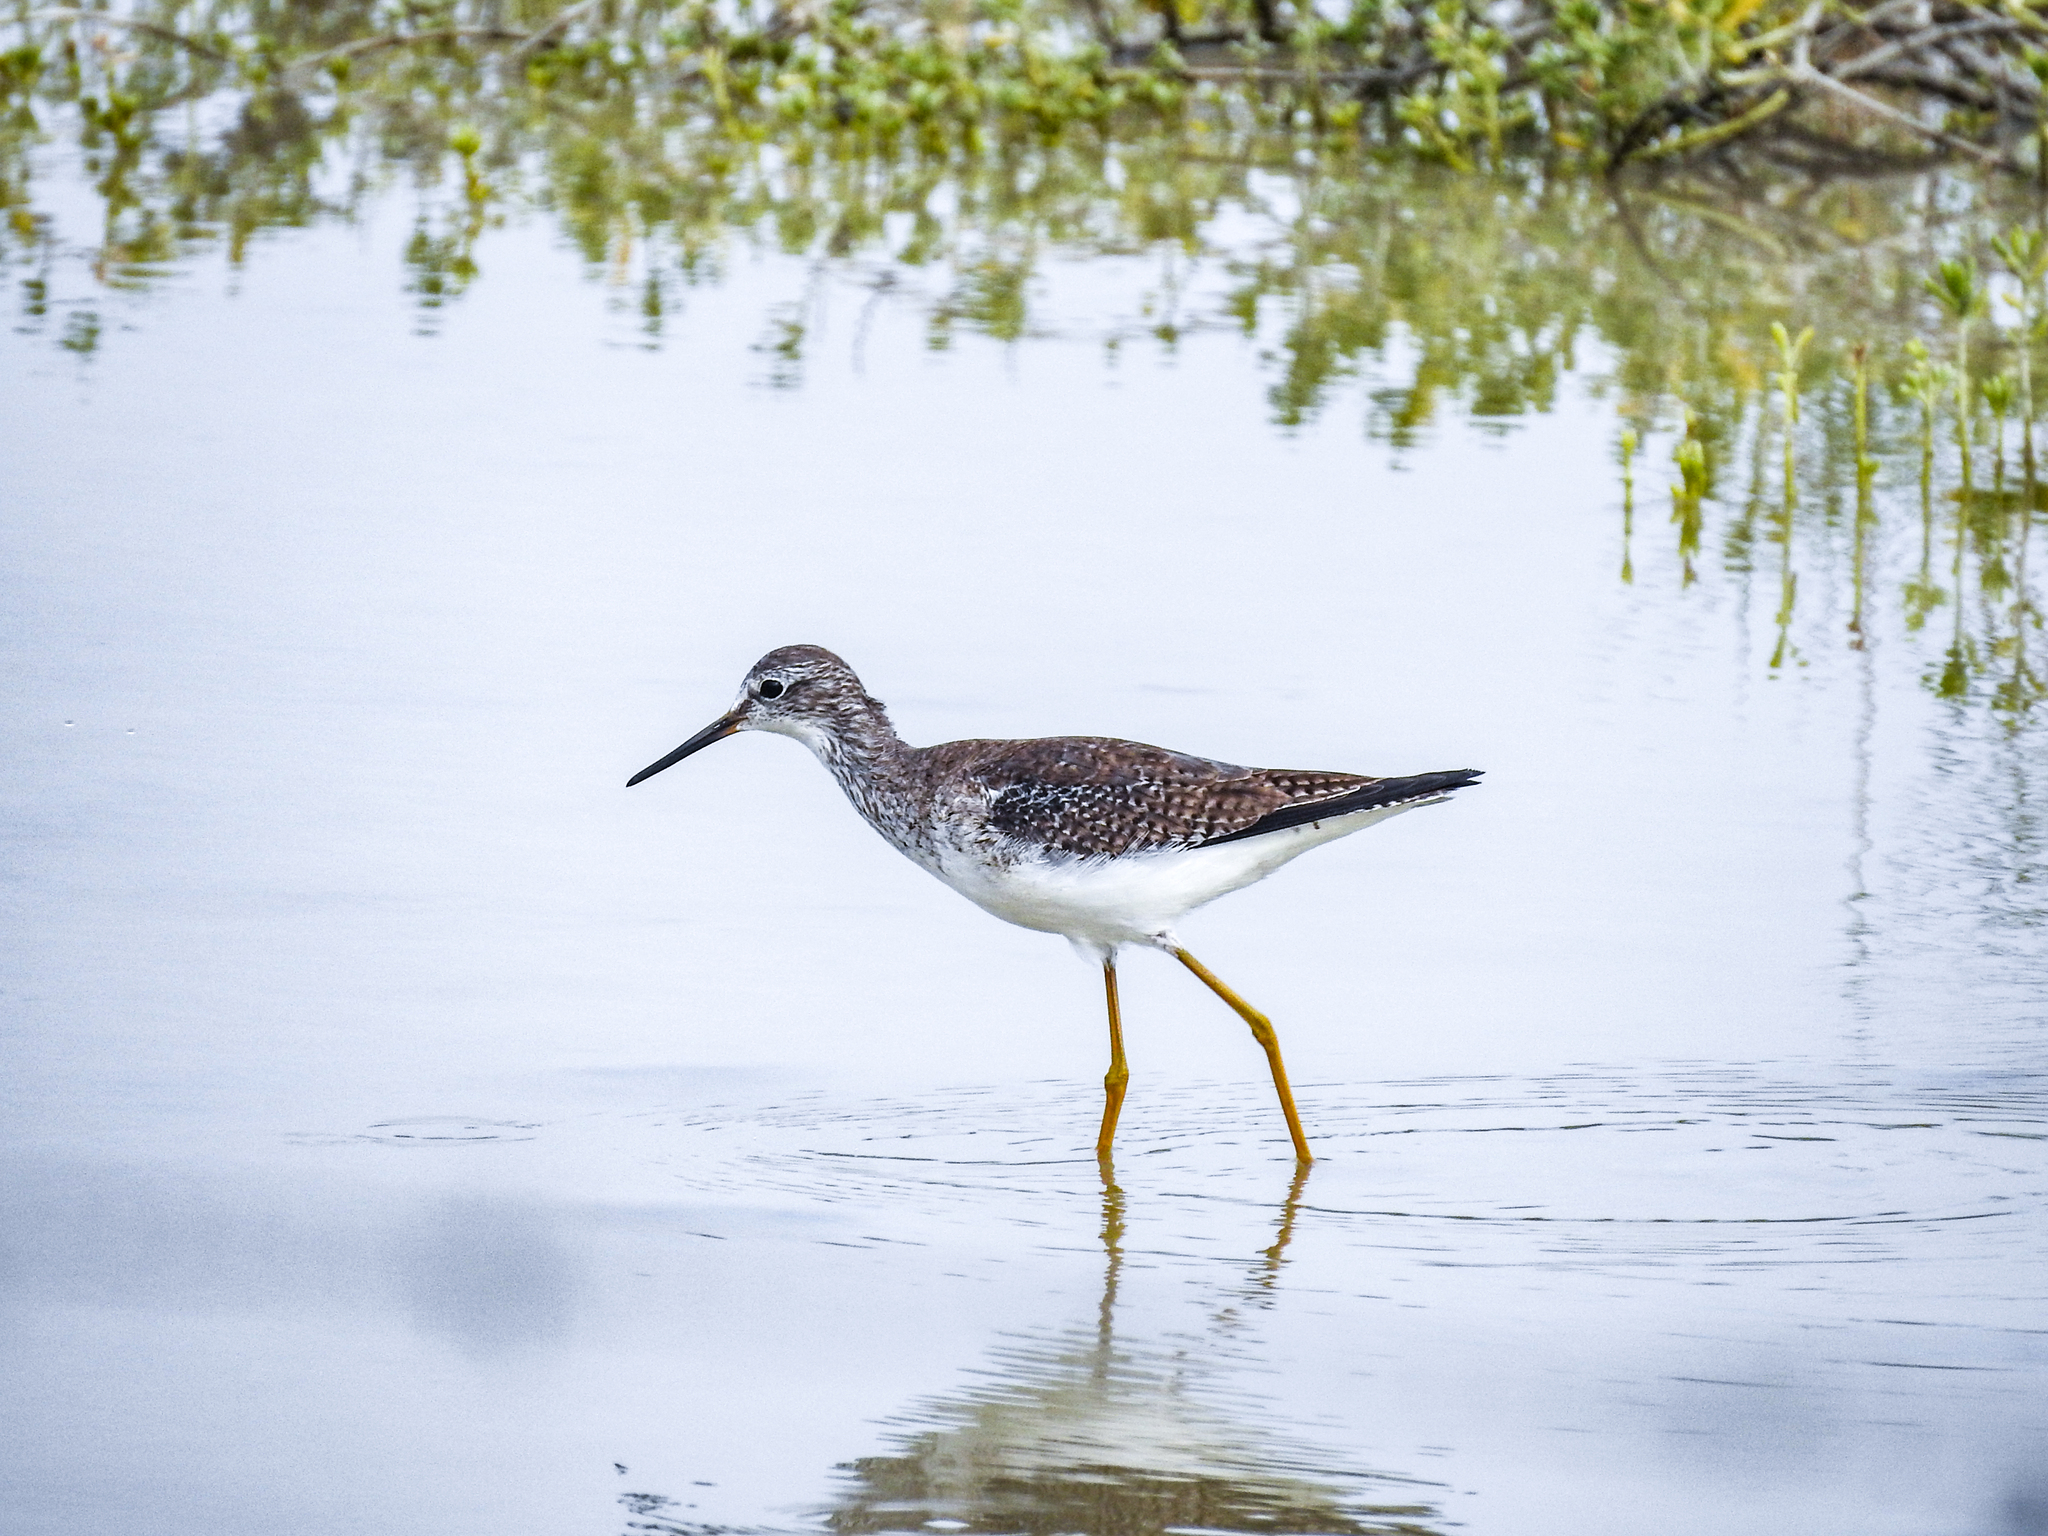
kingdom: Animalia
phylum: Chordata
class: Aves
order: Charadriiformes
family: Scolopacidae
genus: Tringa
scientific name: Tringa melanoleuca
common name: Greater yellowlegs
